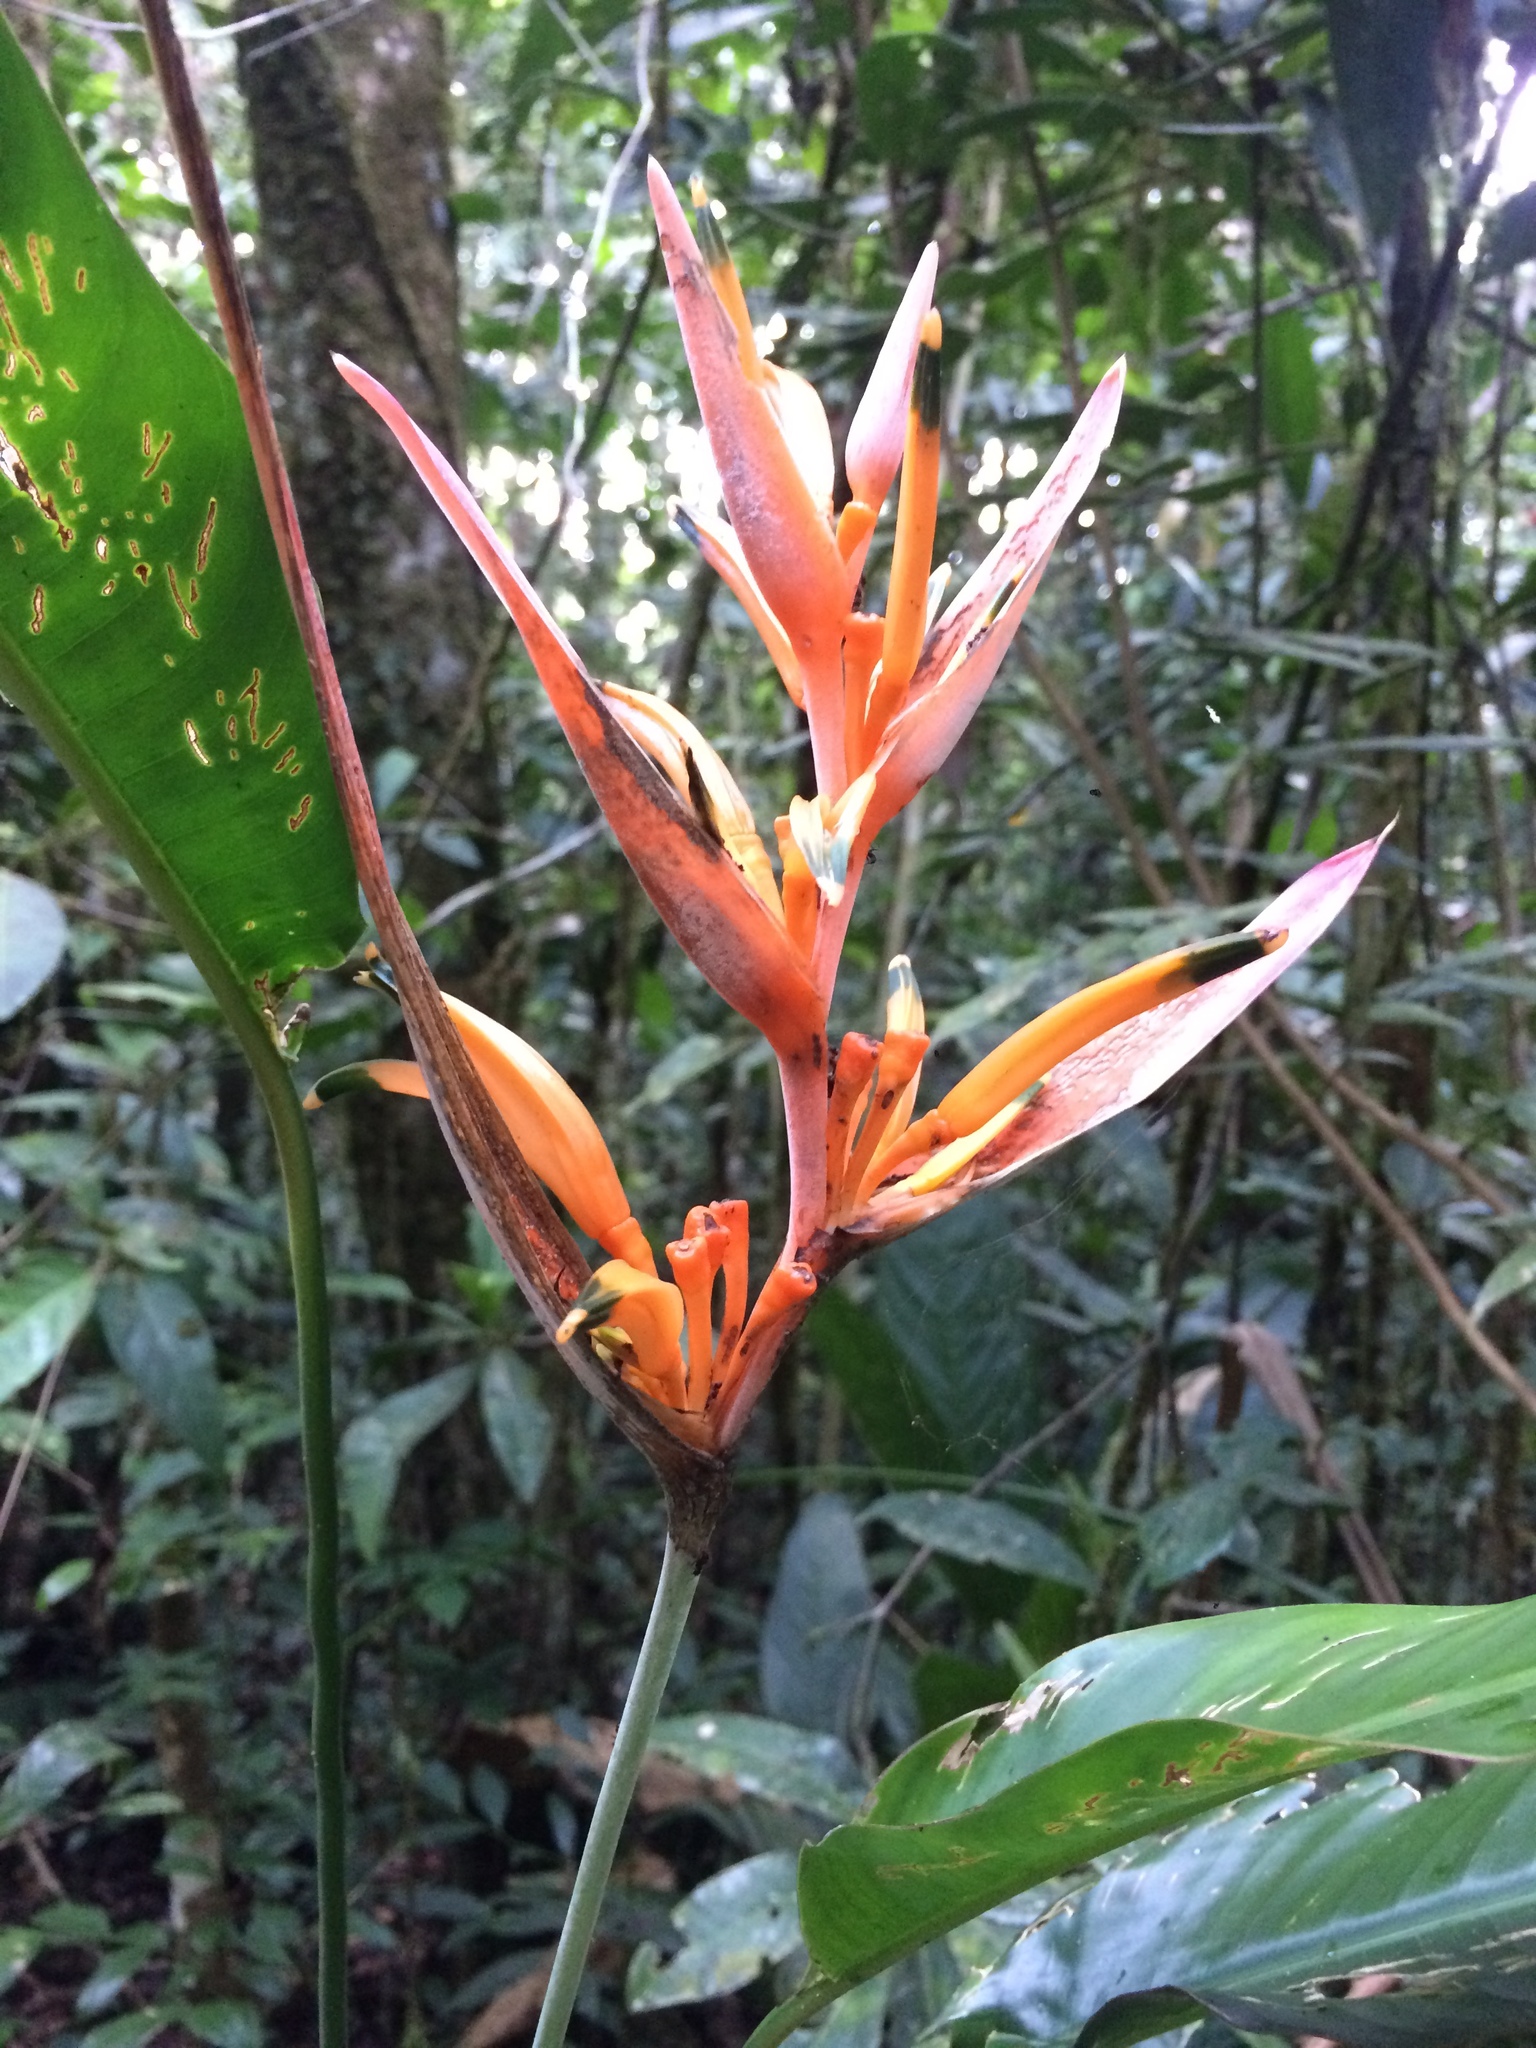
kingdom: Plantae
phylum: Tracheophyta
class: Liliopsida
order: Zingiberales
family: Heliconiaceae
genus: Heliconia
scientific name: Heliconia psittacorum
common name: Parrot's-flower
